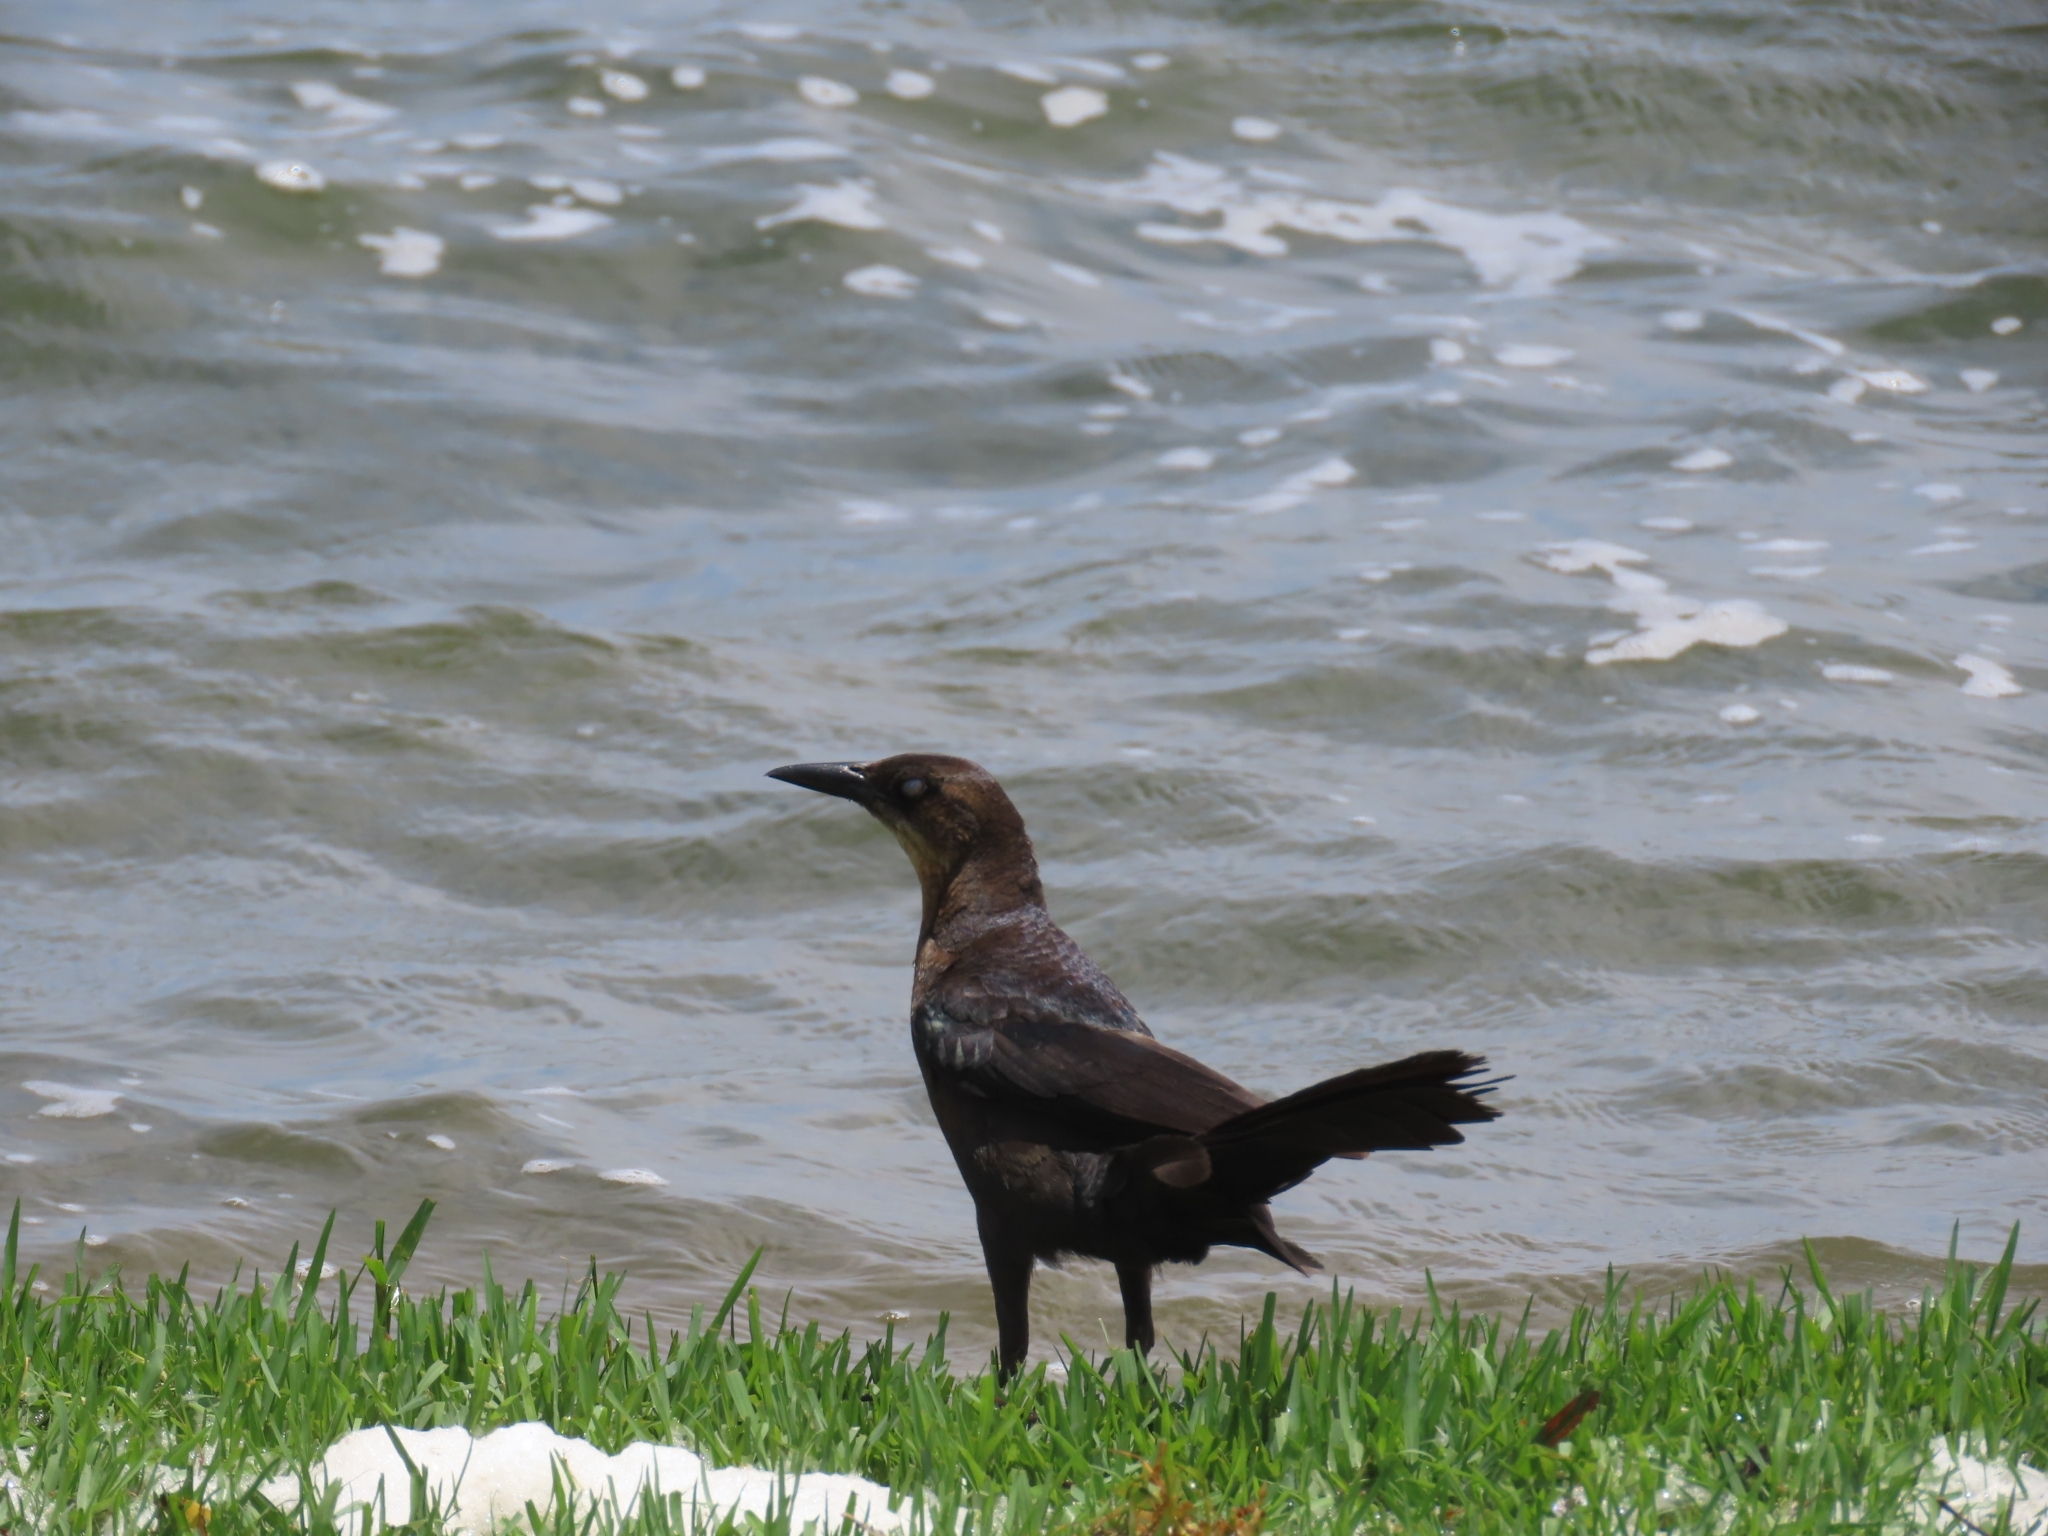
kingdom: Animalia
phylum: Chordata
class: Aves
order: Passeriformes
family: Icteridae
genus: Quiscalus
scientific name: Quiscalus mexicanus
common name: Great-tailed grackle
